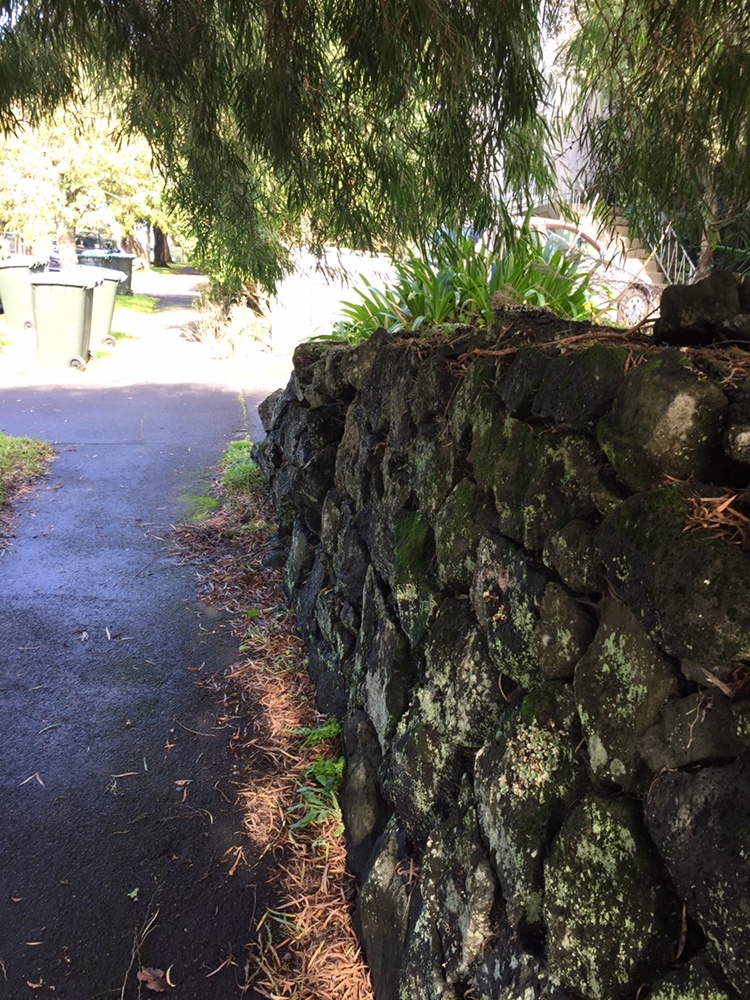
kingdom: Bacteria
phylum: Cyanobacteria
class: Cyanobacteriia
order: Cyanobacteriales
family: Nostocaceae
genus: Nostoc
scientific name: Nostoc commune
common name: Star jelly
